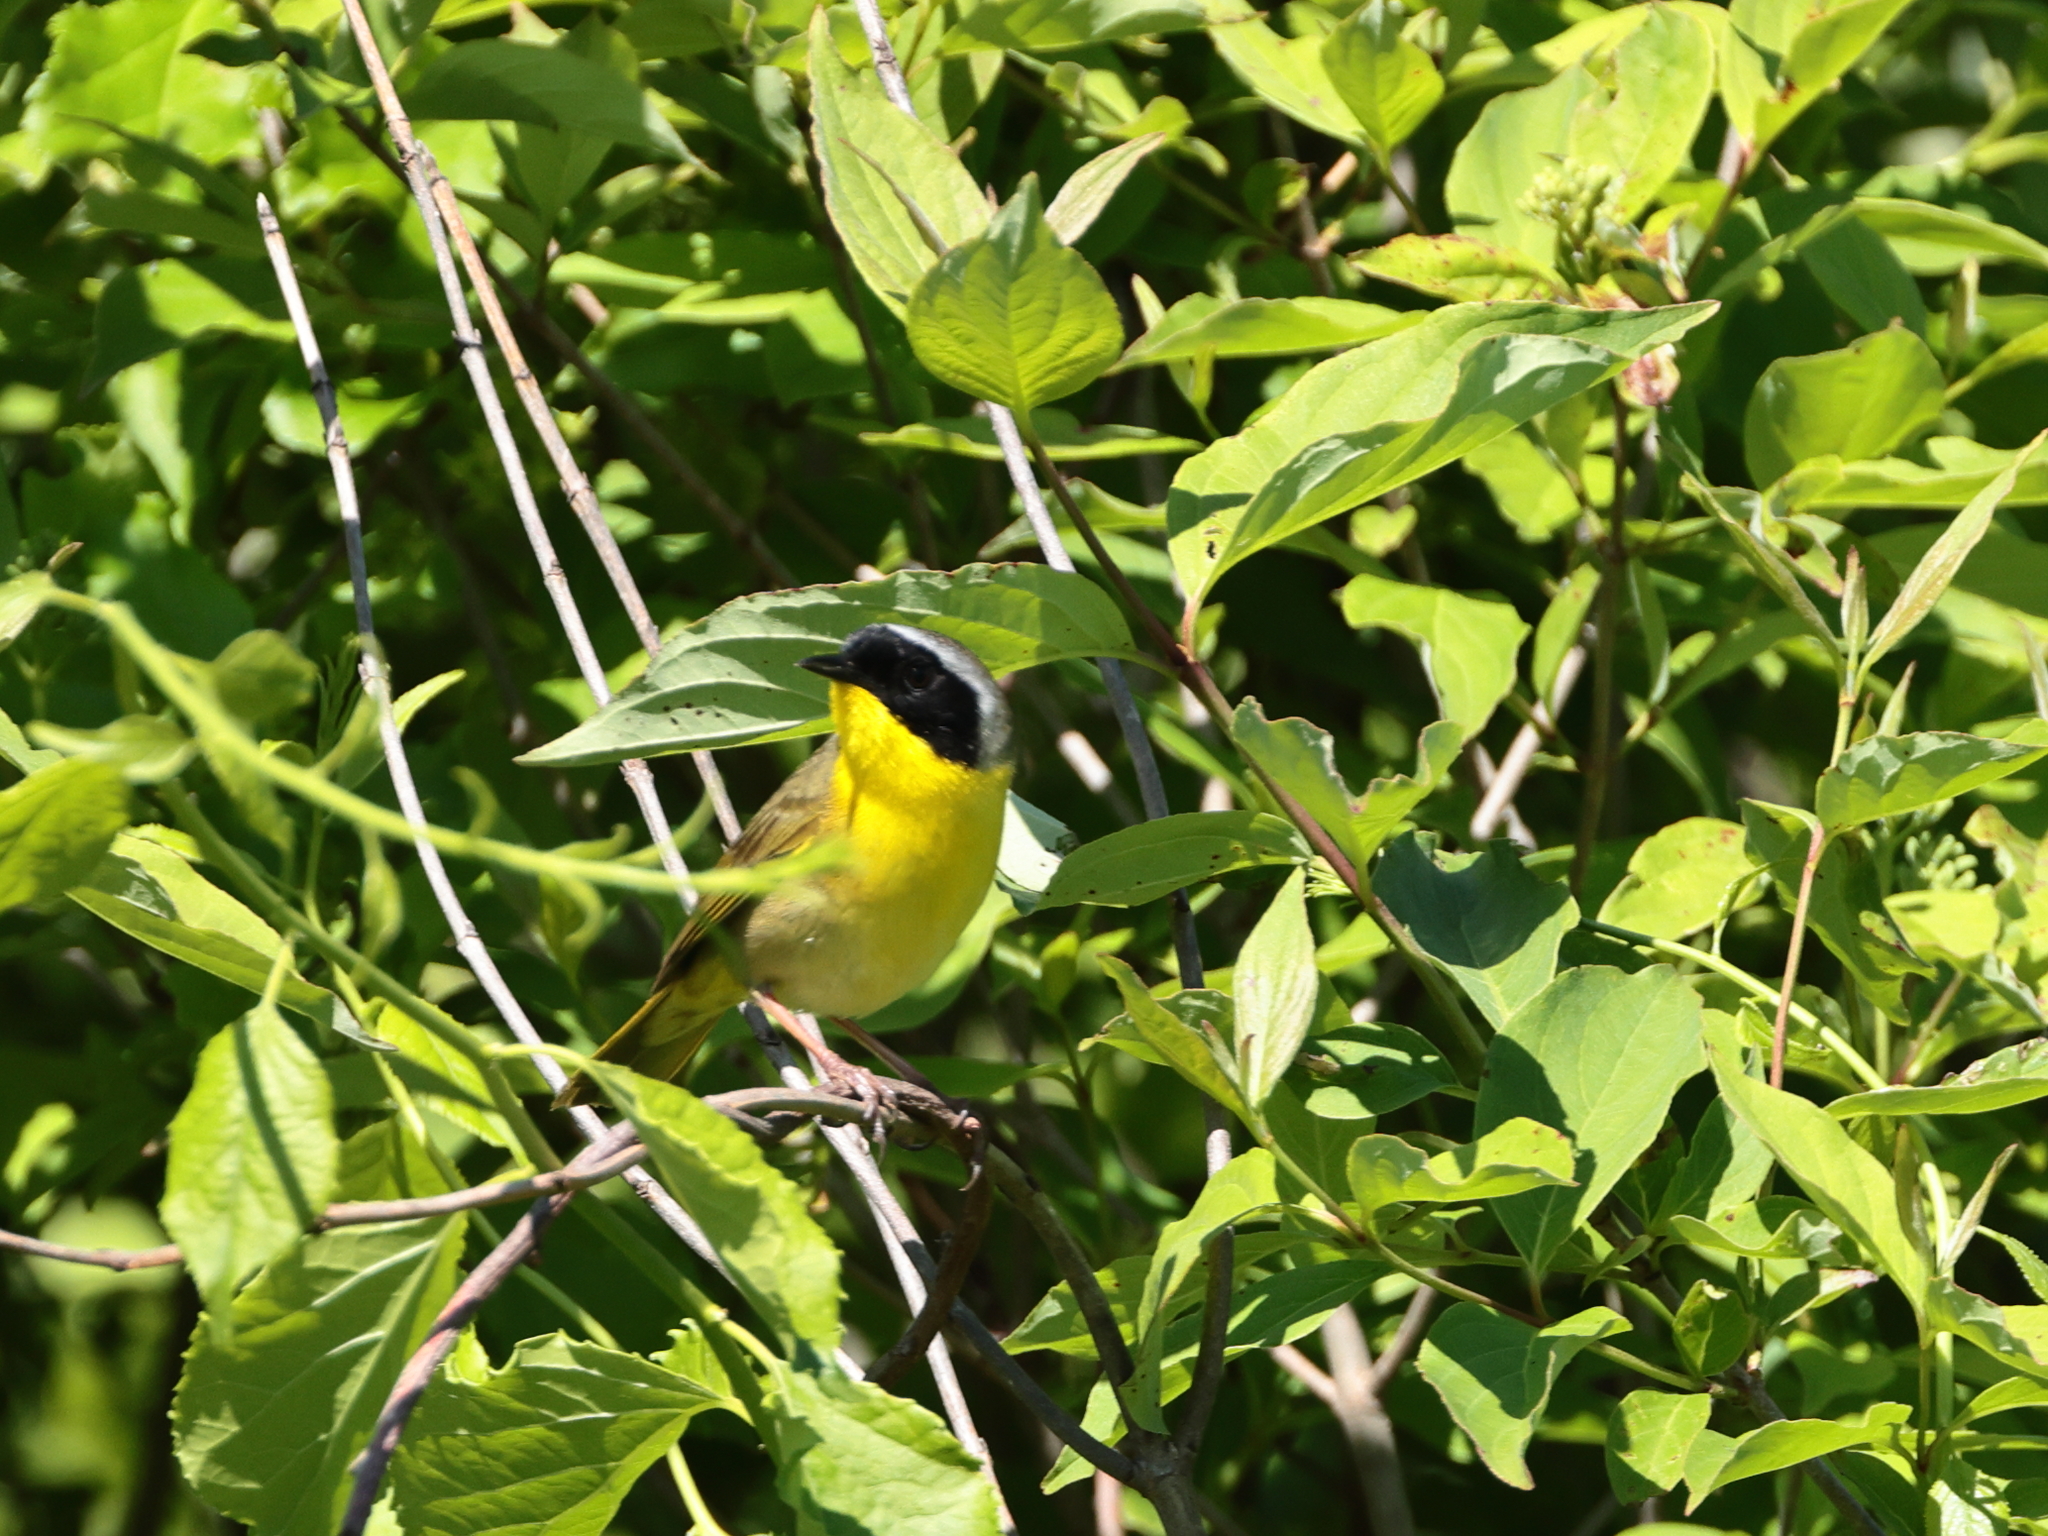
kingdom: Animalia
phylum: Chordata
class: Aves
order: Passeriformes
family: Parulidae
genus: Geothlypis
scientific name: Geothlypis trichas
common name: Common yellowthroat
